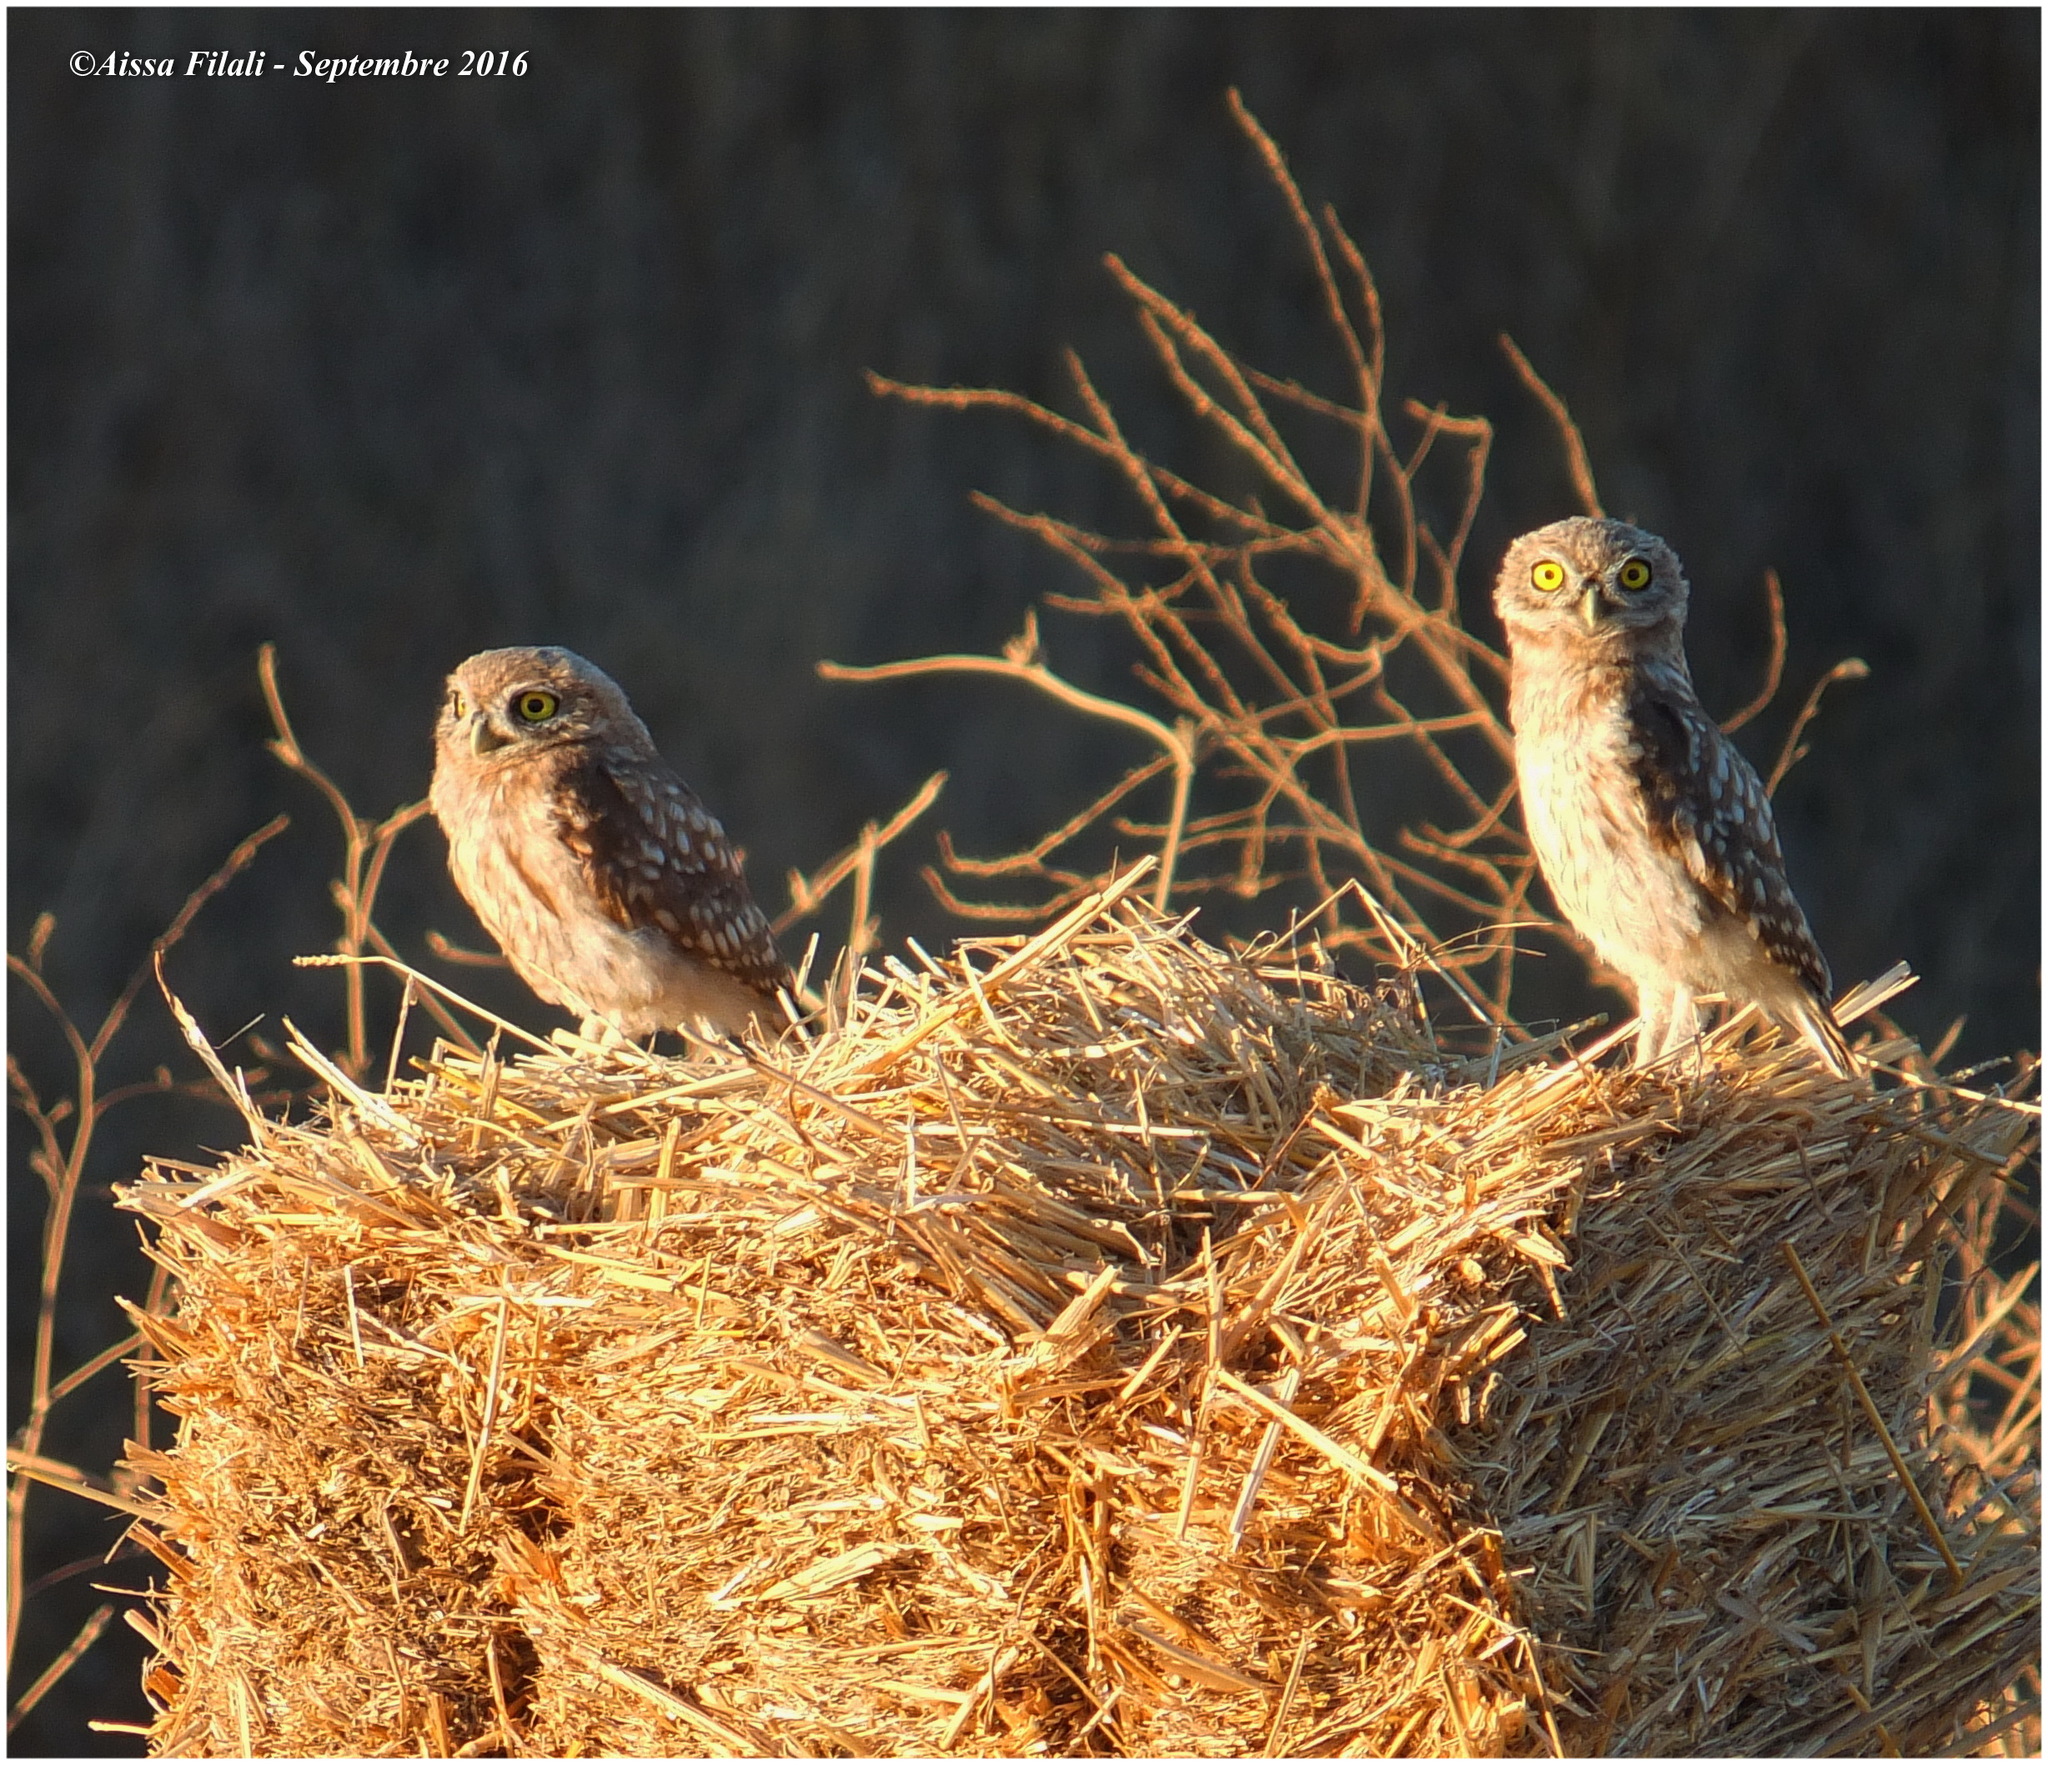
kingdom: Animalia
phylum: Chordata
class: Aves
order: Strigiformes
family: Strigidae
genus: Athene
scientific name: Athene noctua
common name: Little owl
